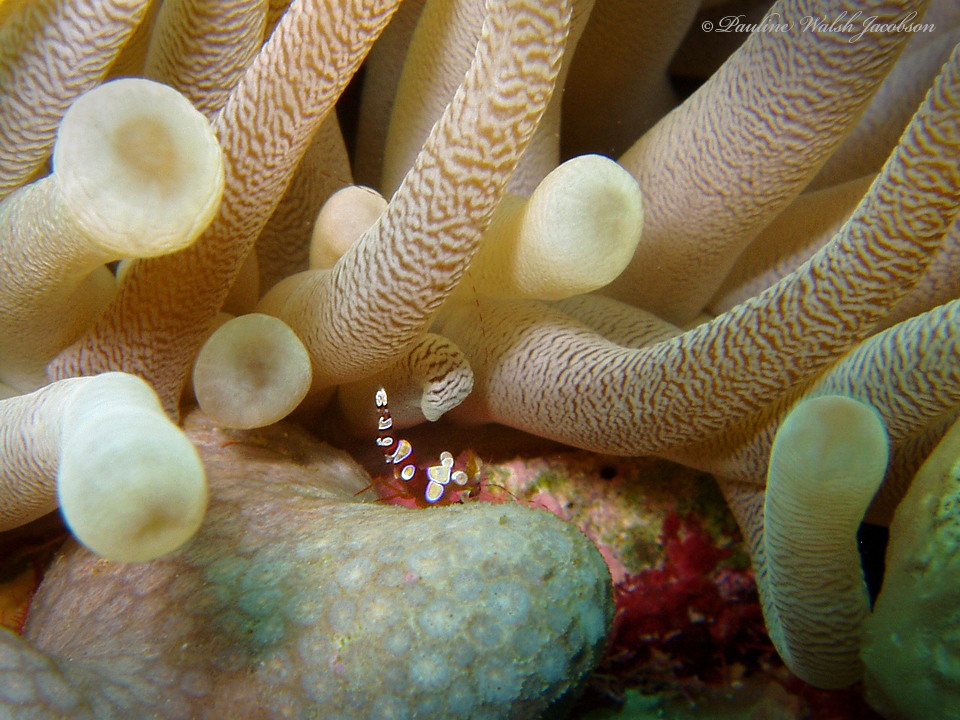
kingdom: Animalia
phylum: Arthropoda
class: Malacostraca
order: Decapoda
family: Thoridae
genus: Thor
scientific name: Thor dicaprio
